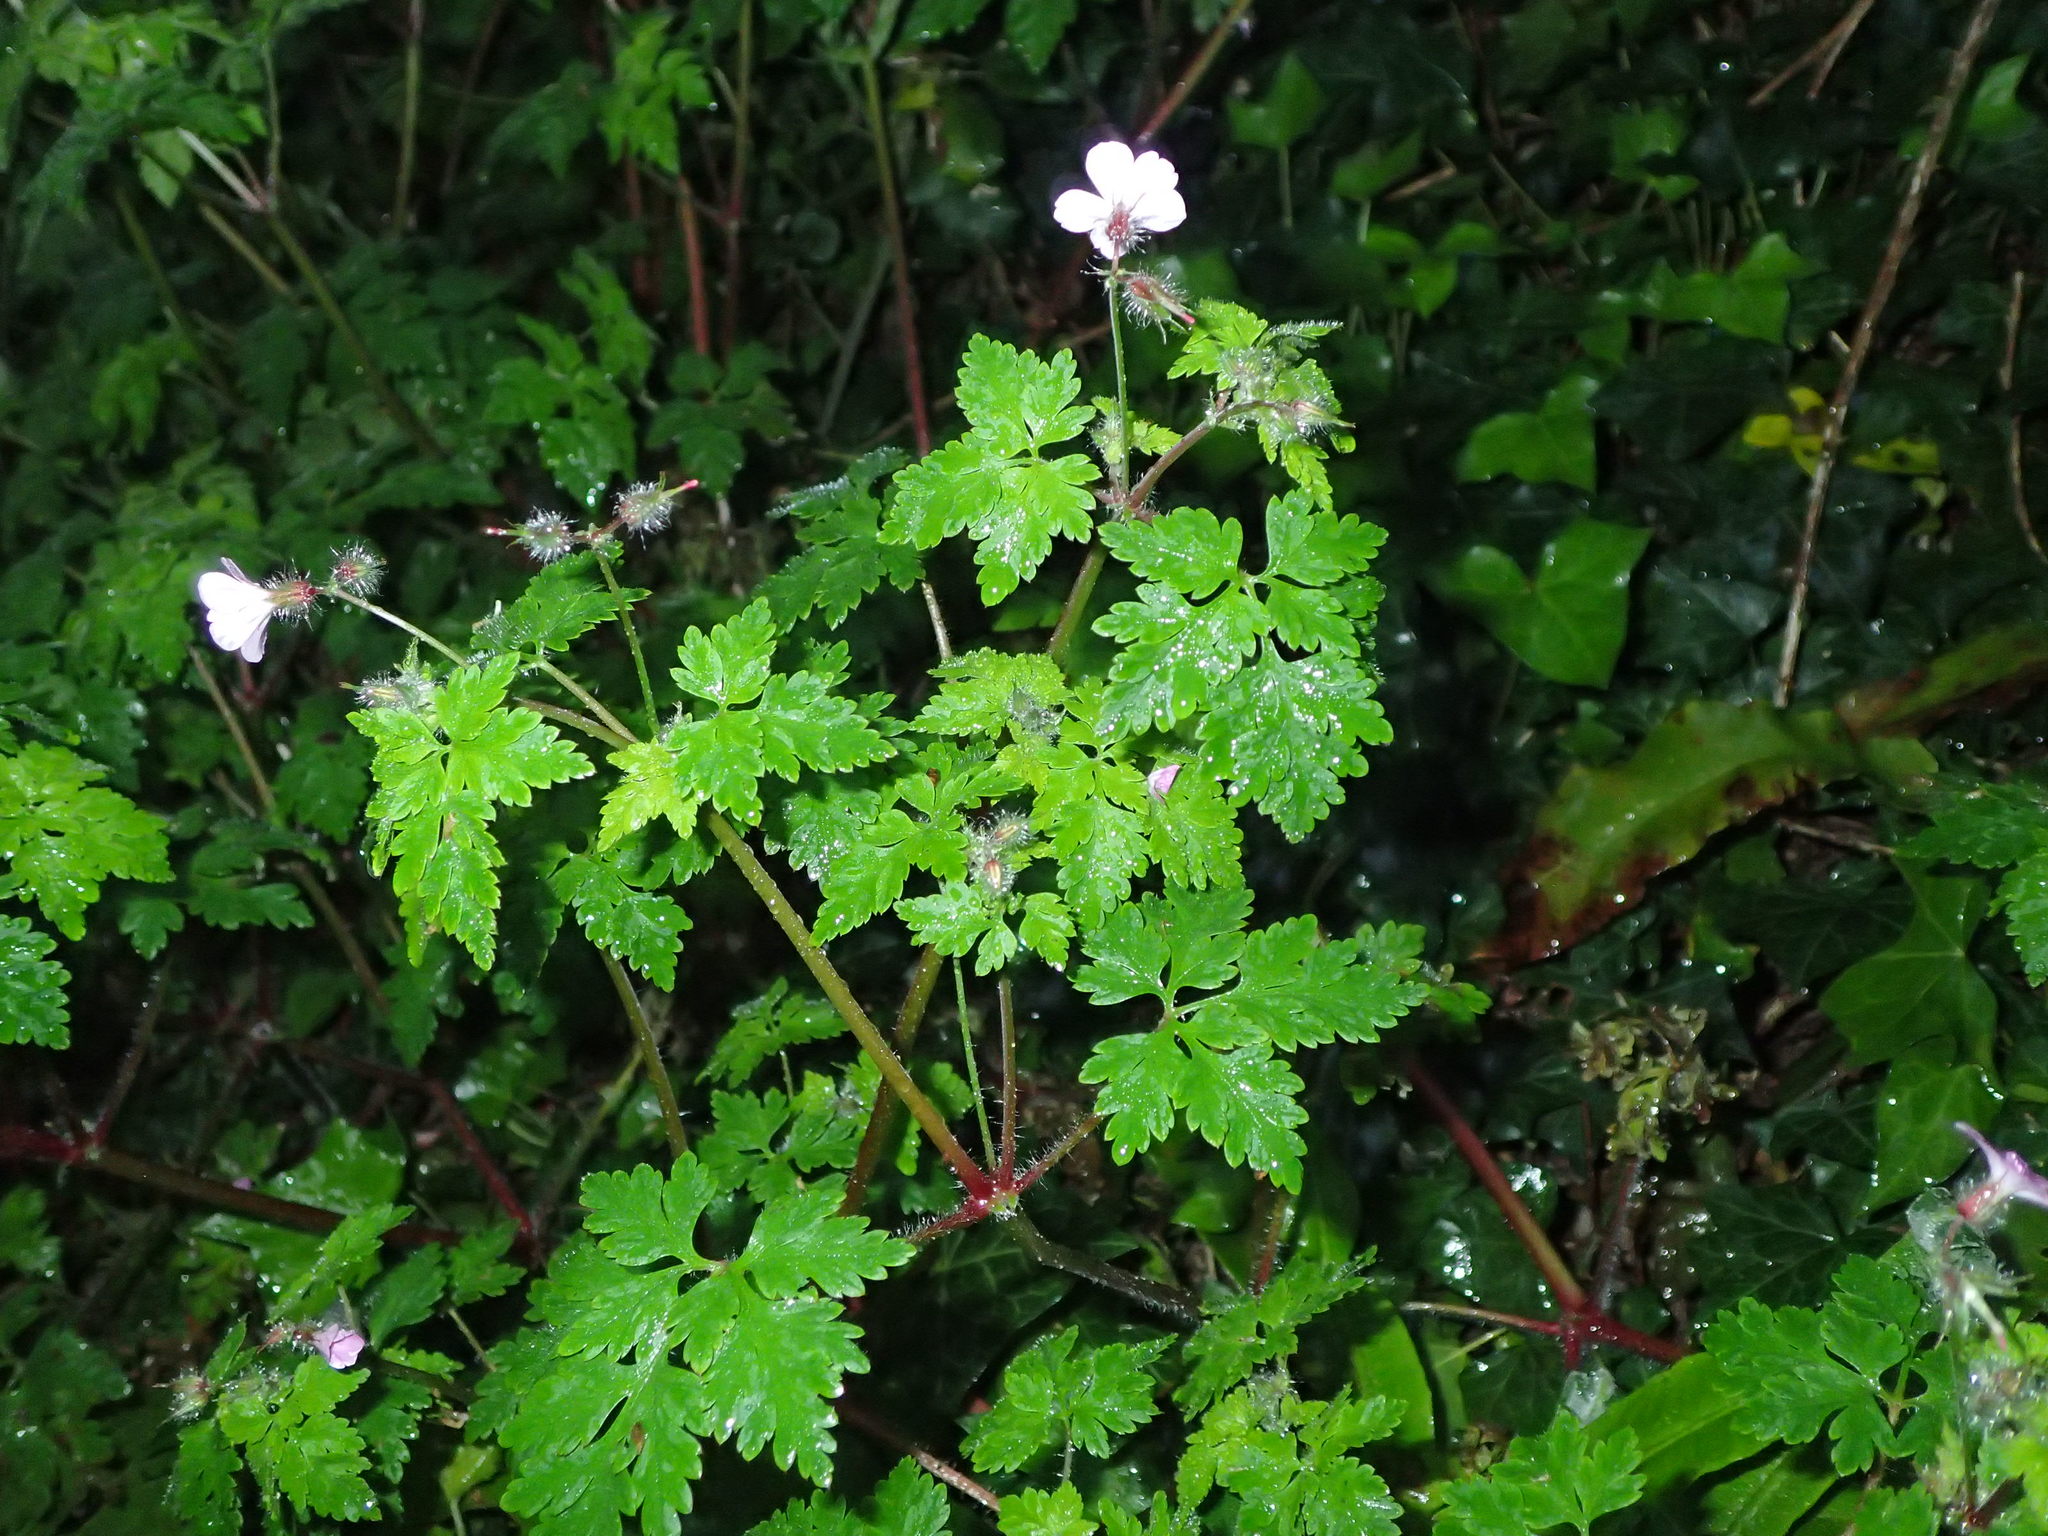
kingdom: Plantae
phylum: Tracheophyta
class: Magnoliopsida
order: Geraniales
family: Geraniaceae
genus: Geranium
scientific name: Geranium robertianum
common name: Herb-robert
